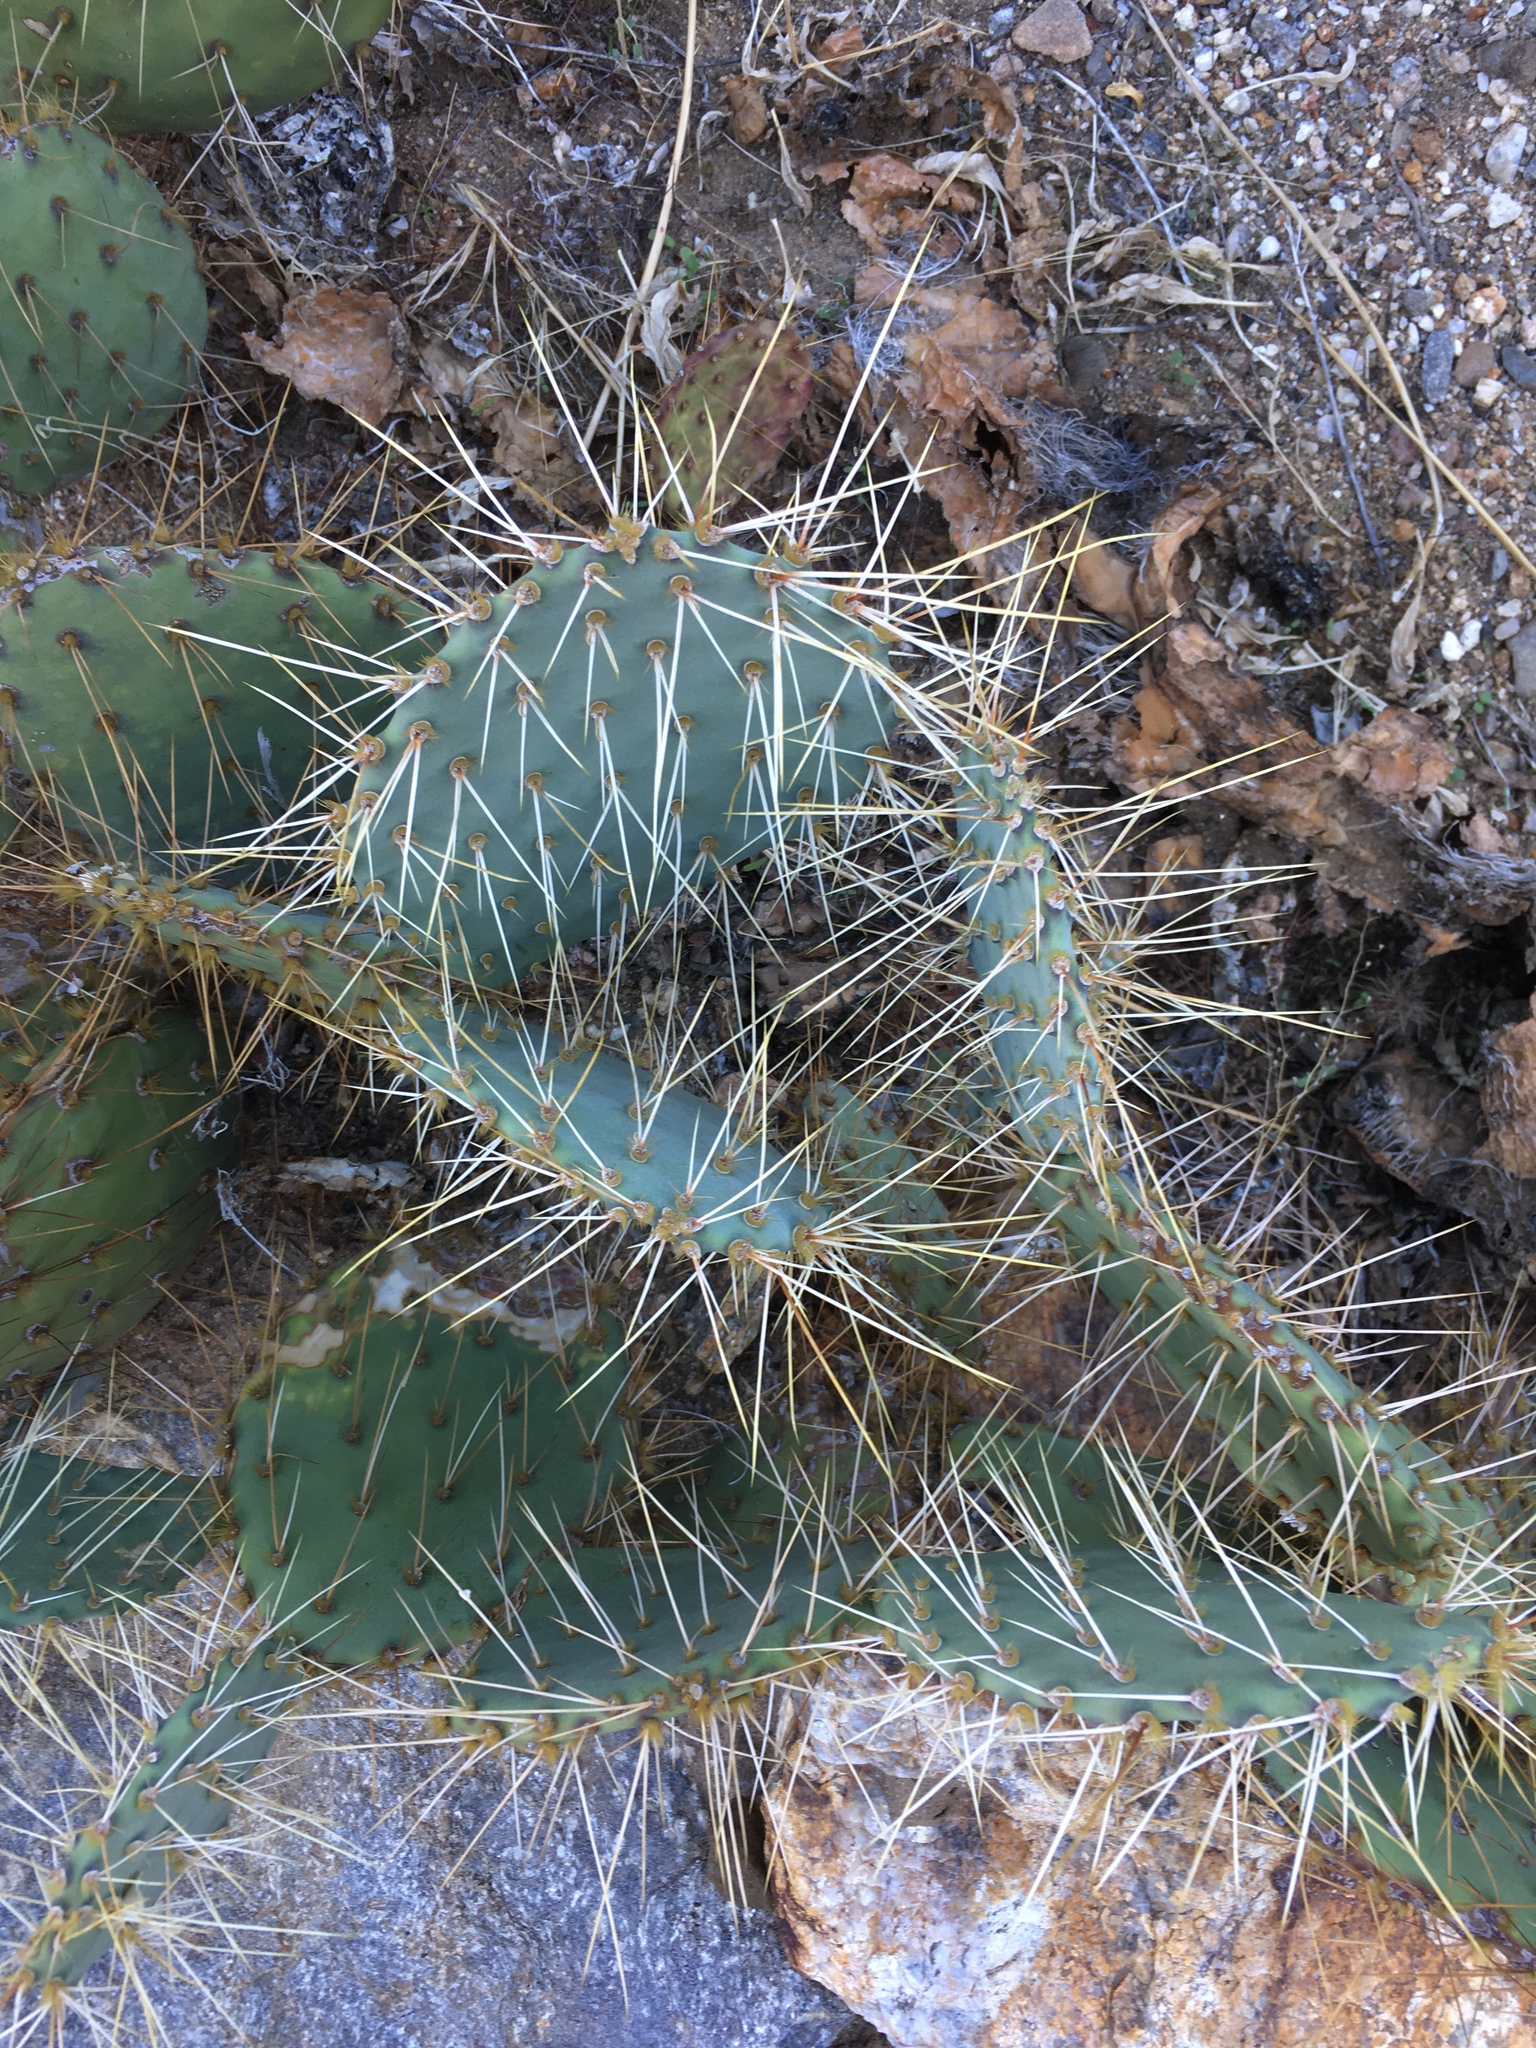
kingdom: Plantae
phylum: Tracheophyta
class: Magnoliopsida
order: Caryophyllales
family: Cactaceae
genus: Opuntia
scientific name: Opuntia phaeacantha
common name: New mexico prickly-pear
